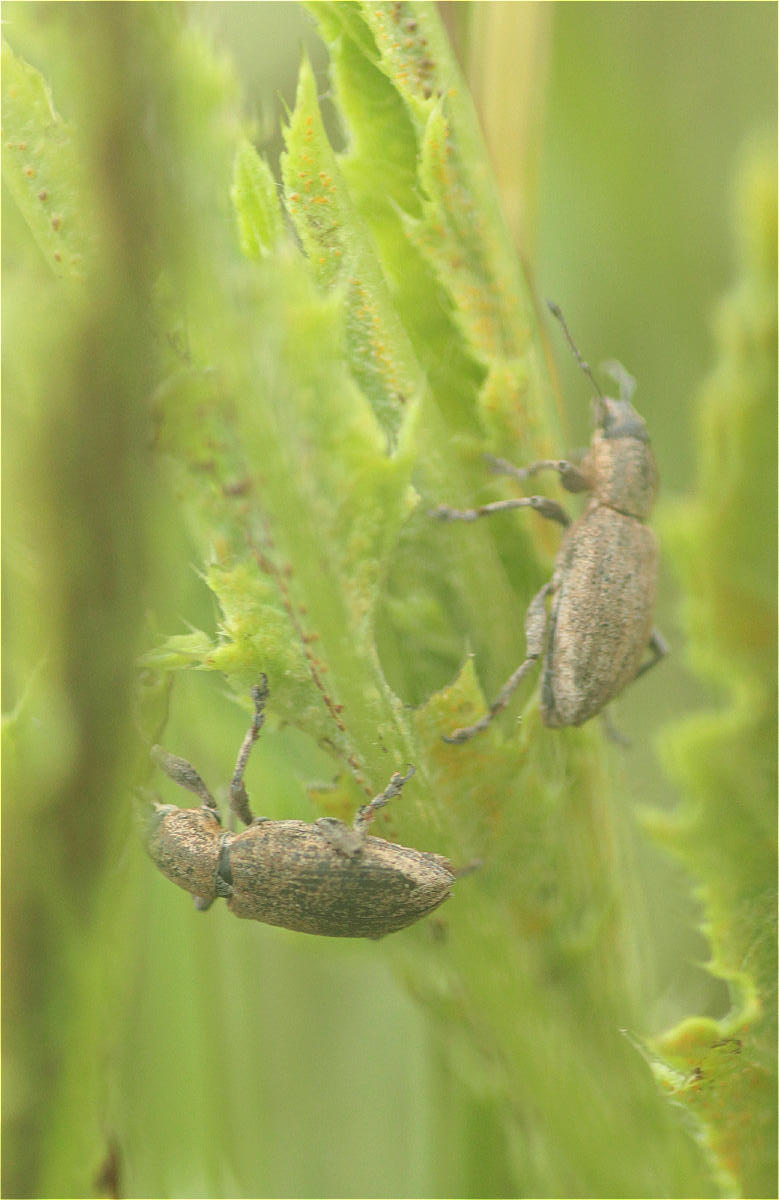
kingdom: Animalia
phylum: Arthropoda
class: Insecta
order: Coleoptera
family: Curculionidae
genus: Tanymecus
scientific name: Tanymecus palliatus
